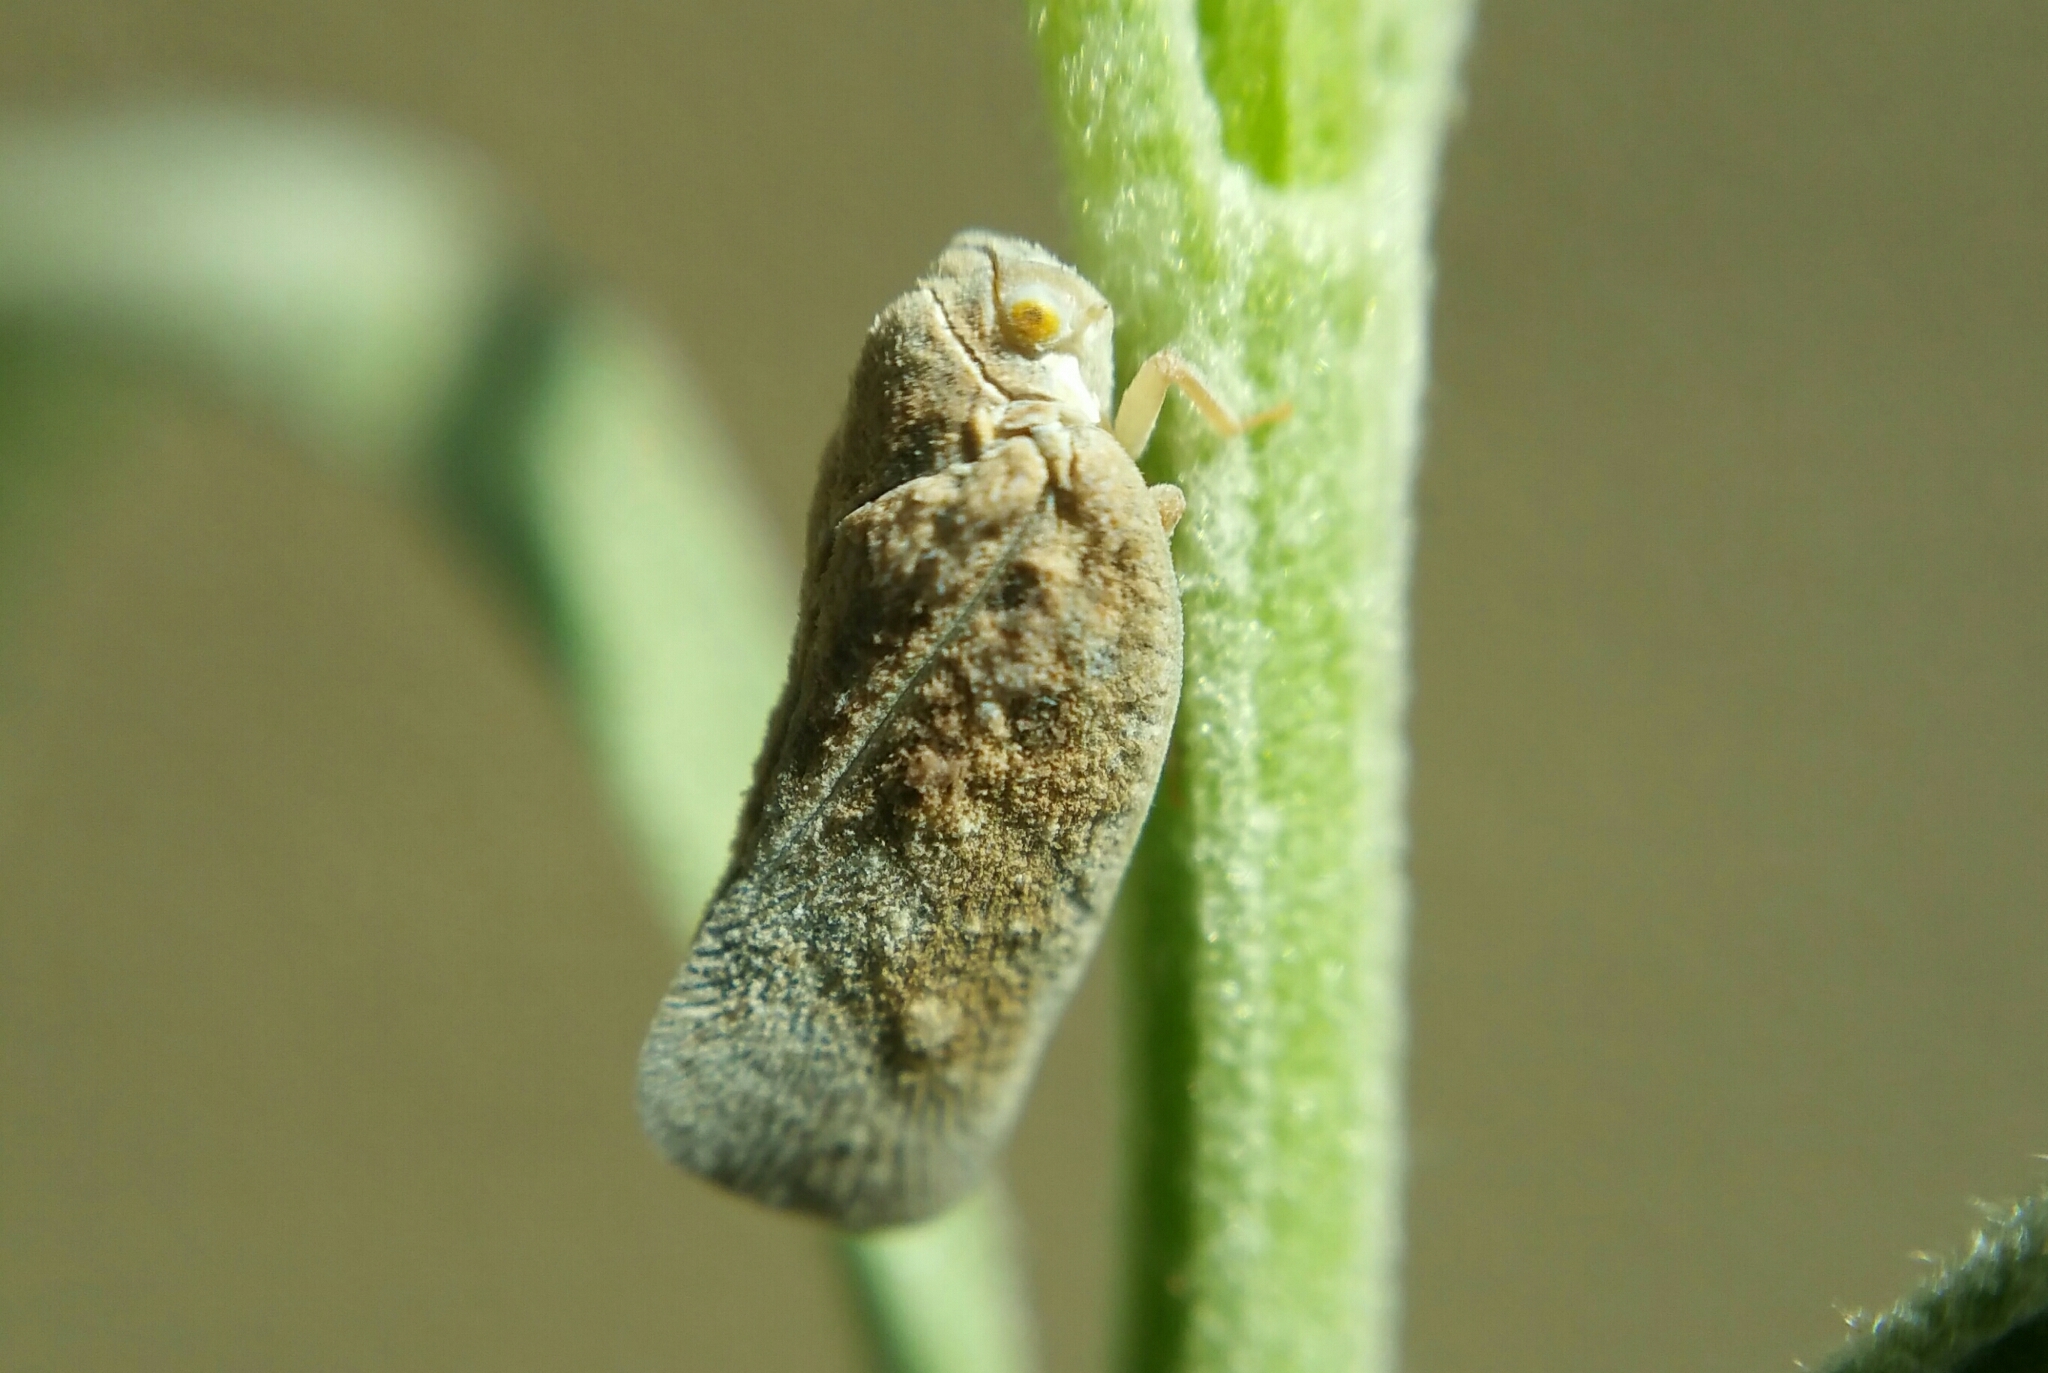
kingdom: Animalia
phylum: Arthropoda
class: Insecta
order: Hemiptera
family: Flatidae
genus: Metcalfa
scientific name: Metcalfa pruinosa
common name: Citrus flatid planthopper
